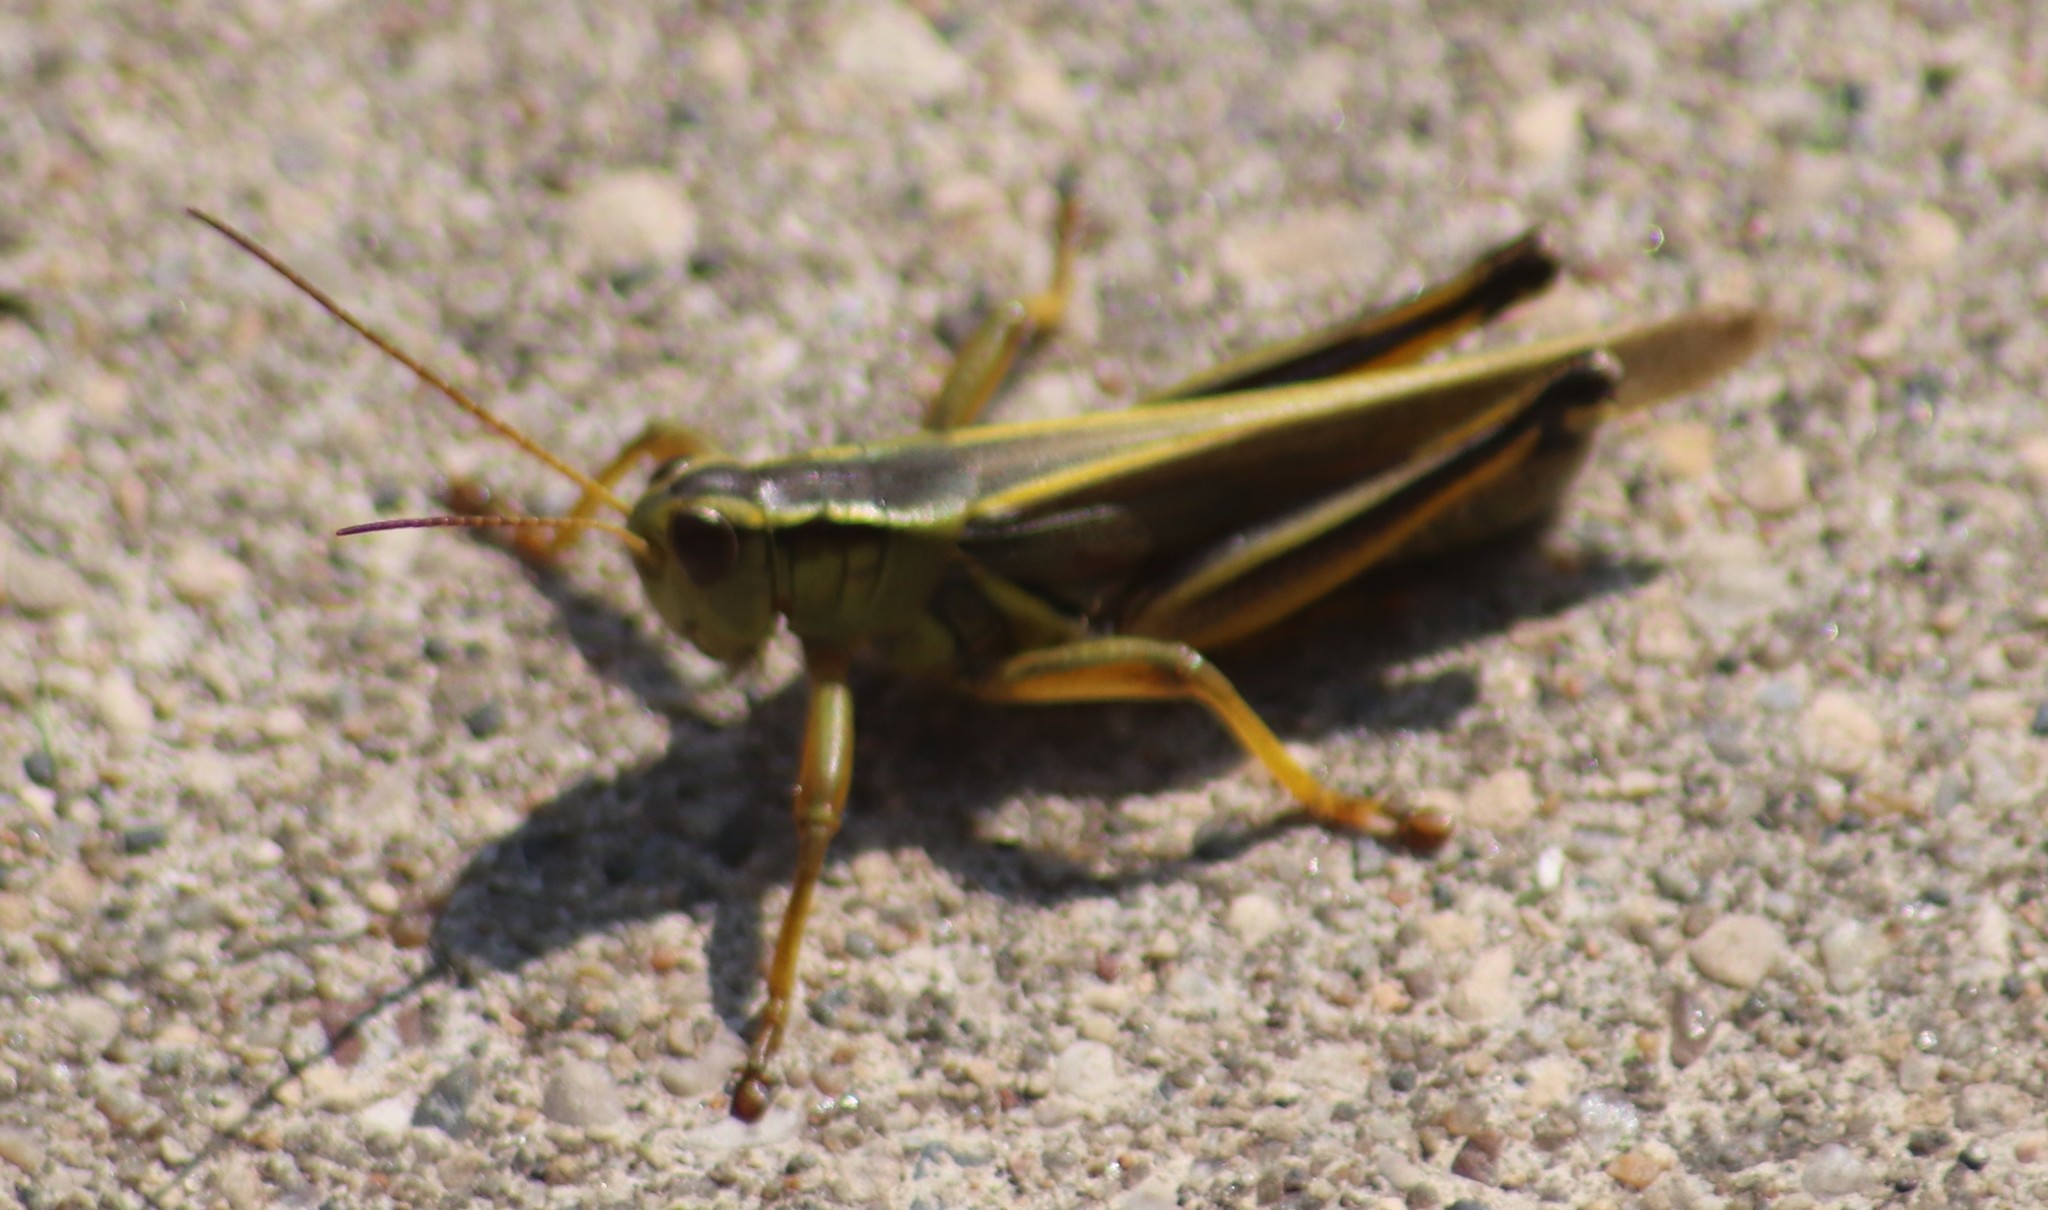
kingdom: Animalia
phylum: Arthropoda
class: Insecta
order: Orthoptera
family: Acrididae
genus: Melanoplus
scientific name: Melanoplus bivittatus
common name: Two-striped grasshopper
